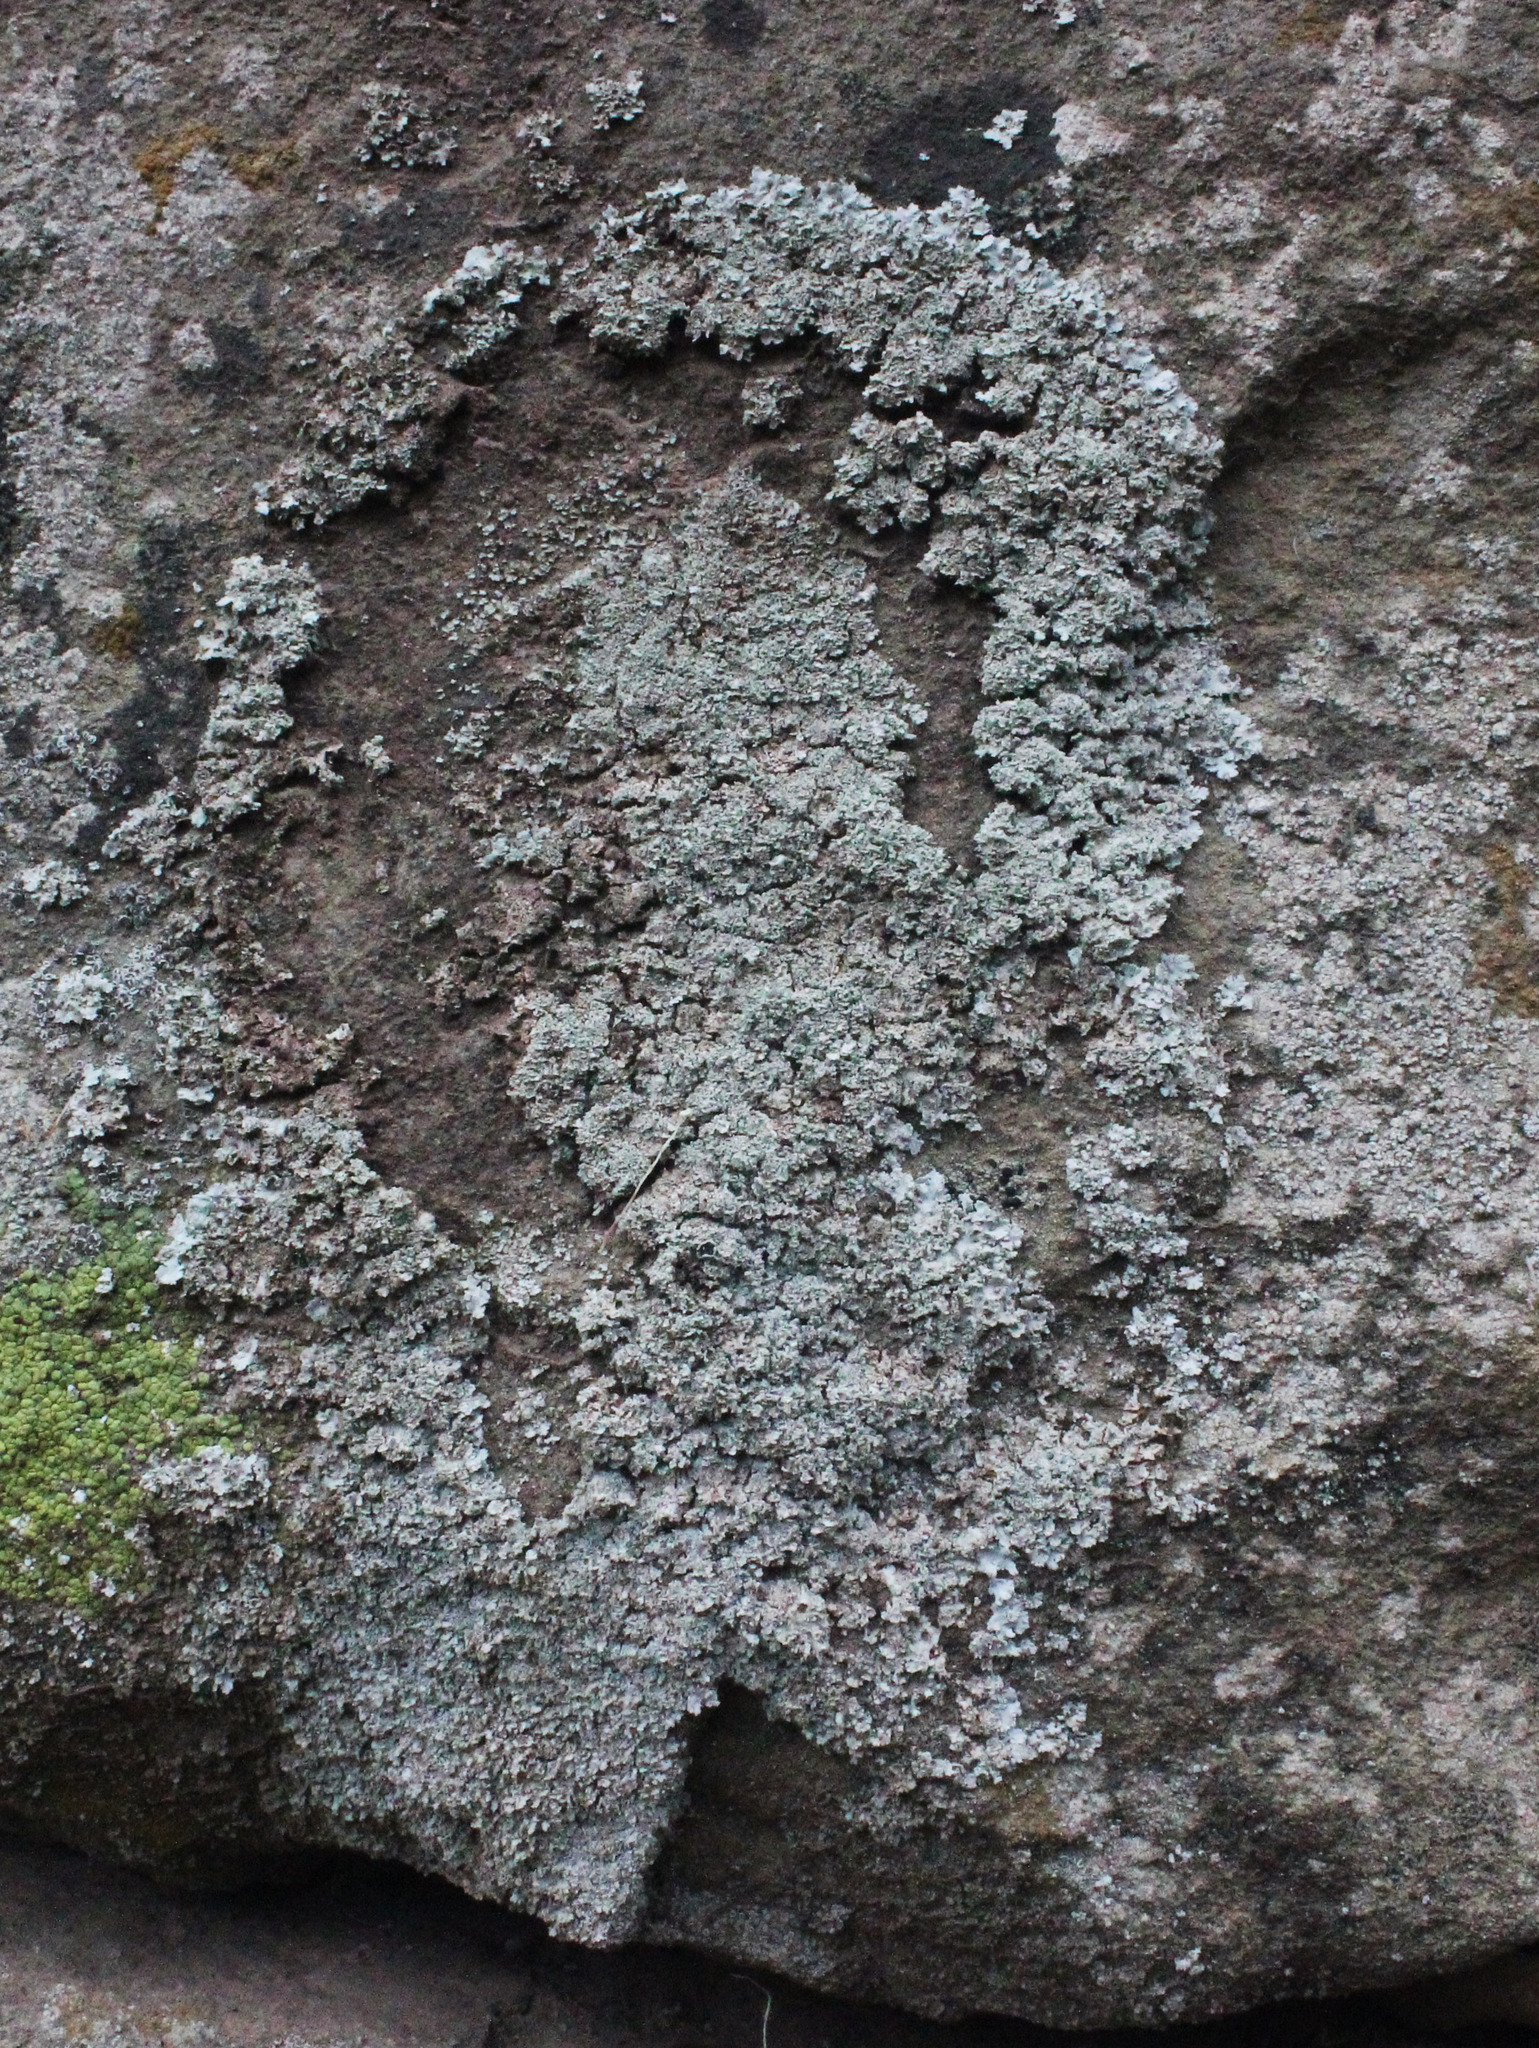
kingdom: Fungi
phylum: Ascomycota
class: Lecanoromycetes
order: Caliciales
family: Physciaceae
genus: Physcia
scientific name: Physcia dimidiata
